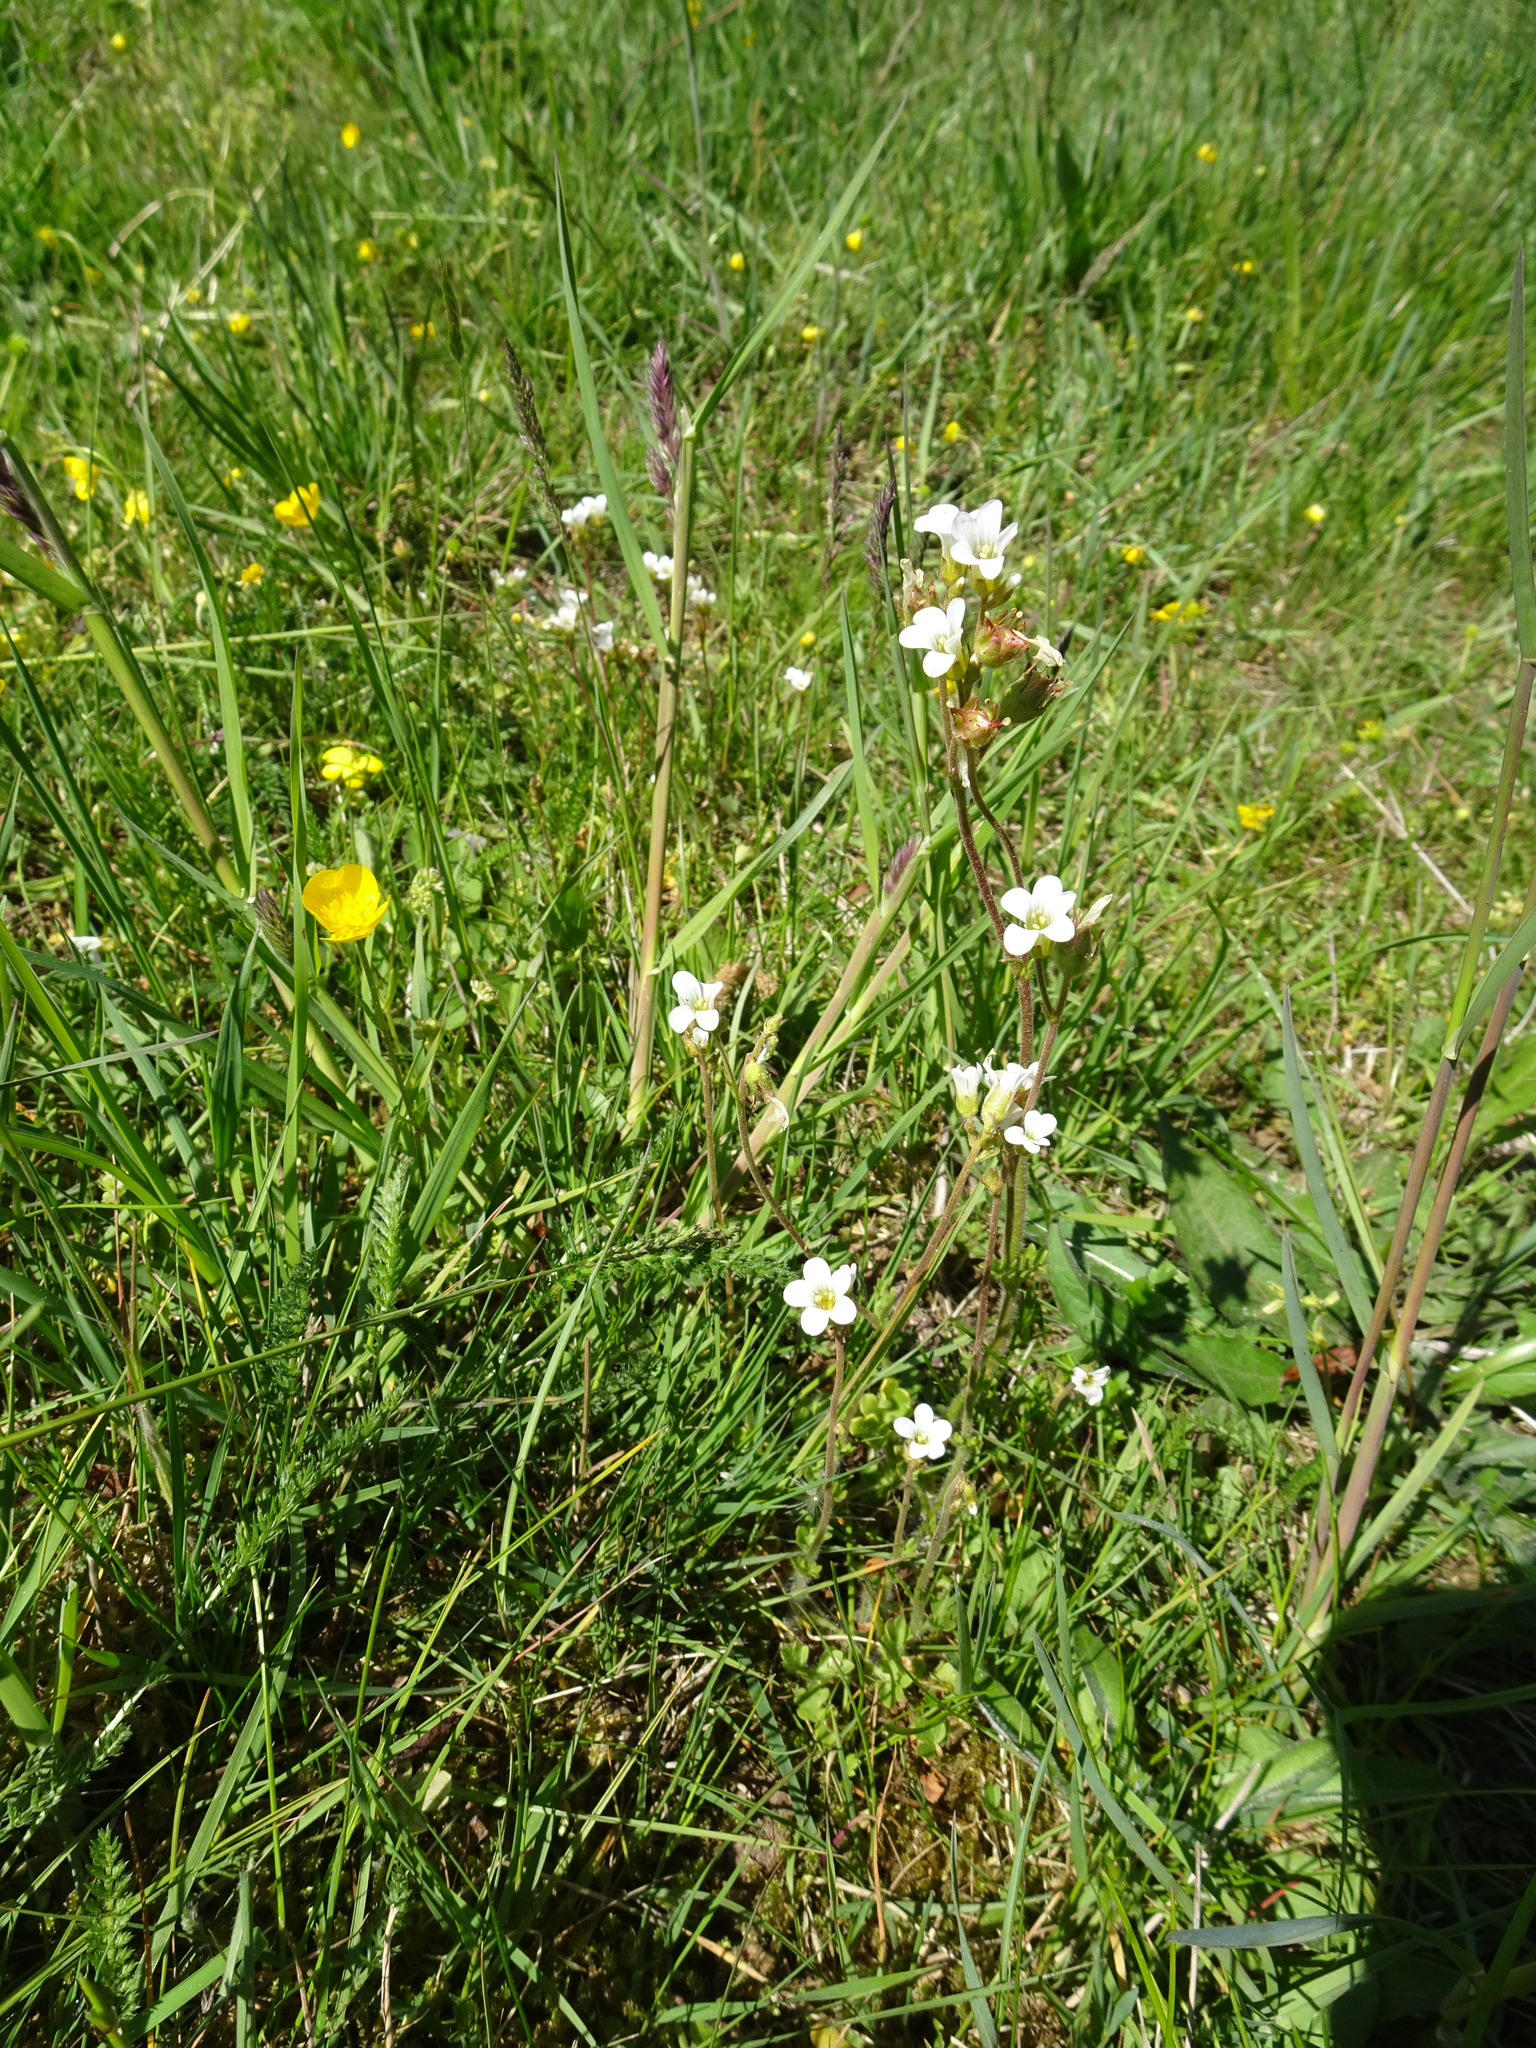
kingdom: Plantae
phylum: Tracheophyta
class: Magnoliopsida
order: Saxifragales
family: Saxifragaceae
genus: Saxifraga
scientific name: Saxifraga granulata
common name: Meadow saxifrage
